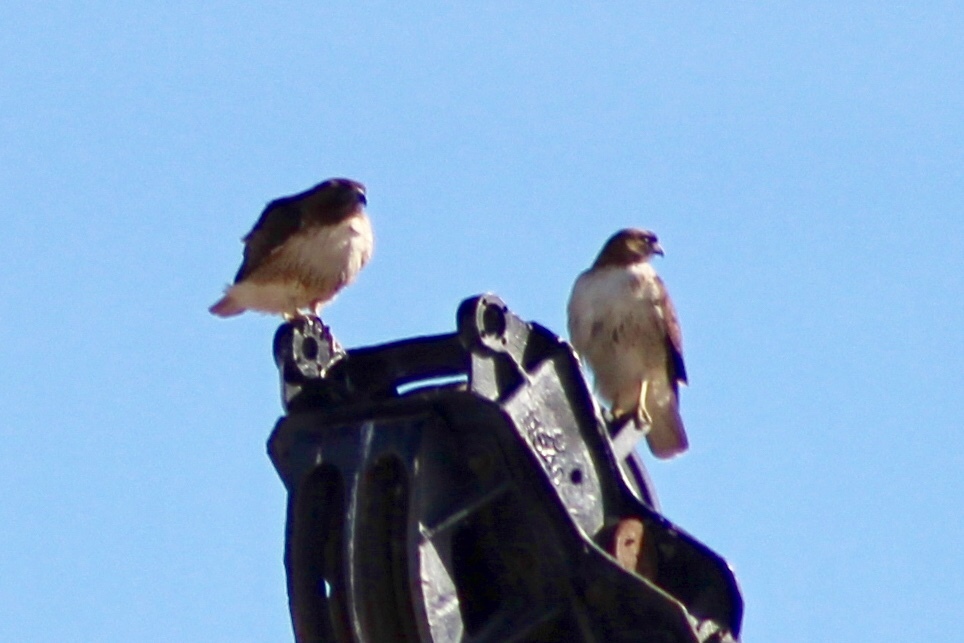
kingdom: Animalia
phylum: Chordata
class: Aves
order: Accipitriformes
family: Accipitridae
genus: Buteo
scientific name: Buteo jamaicensis
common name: Red-tailed hawk
